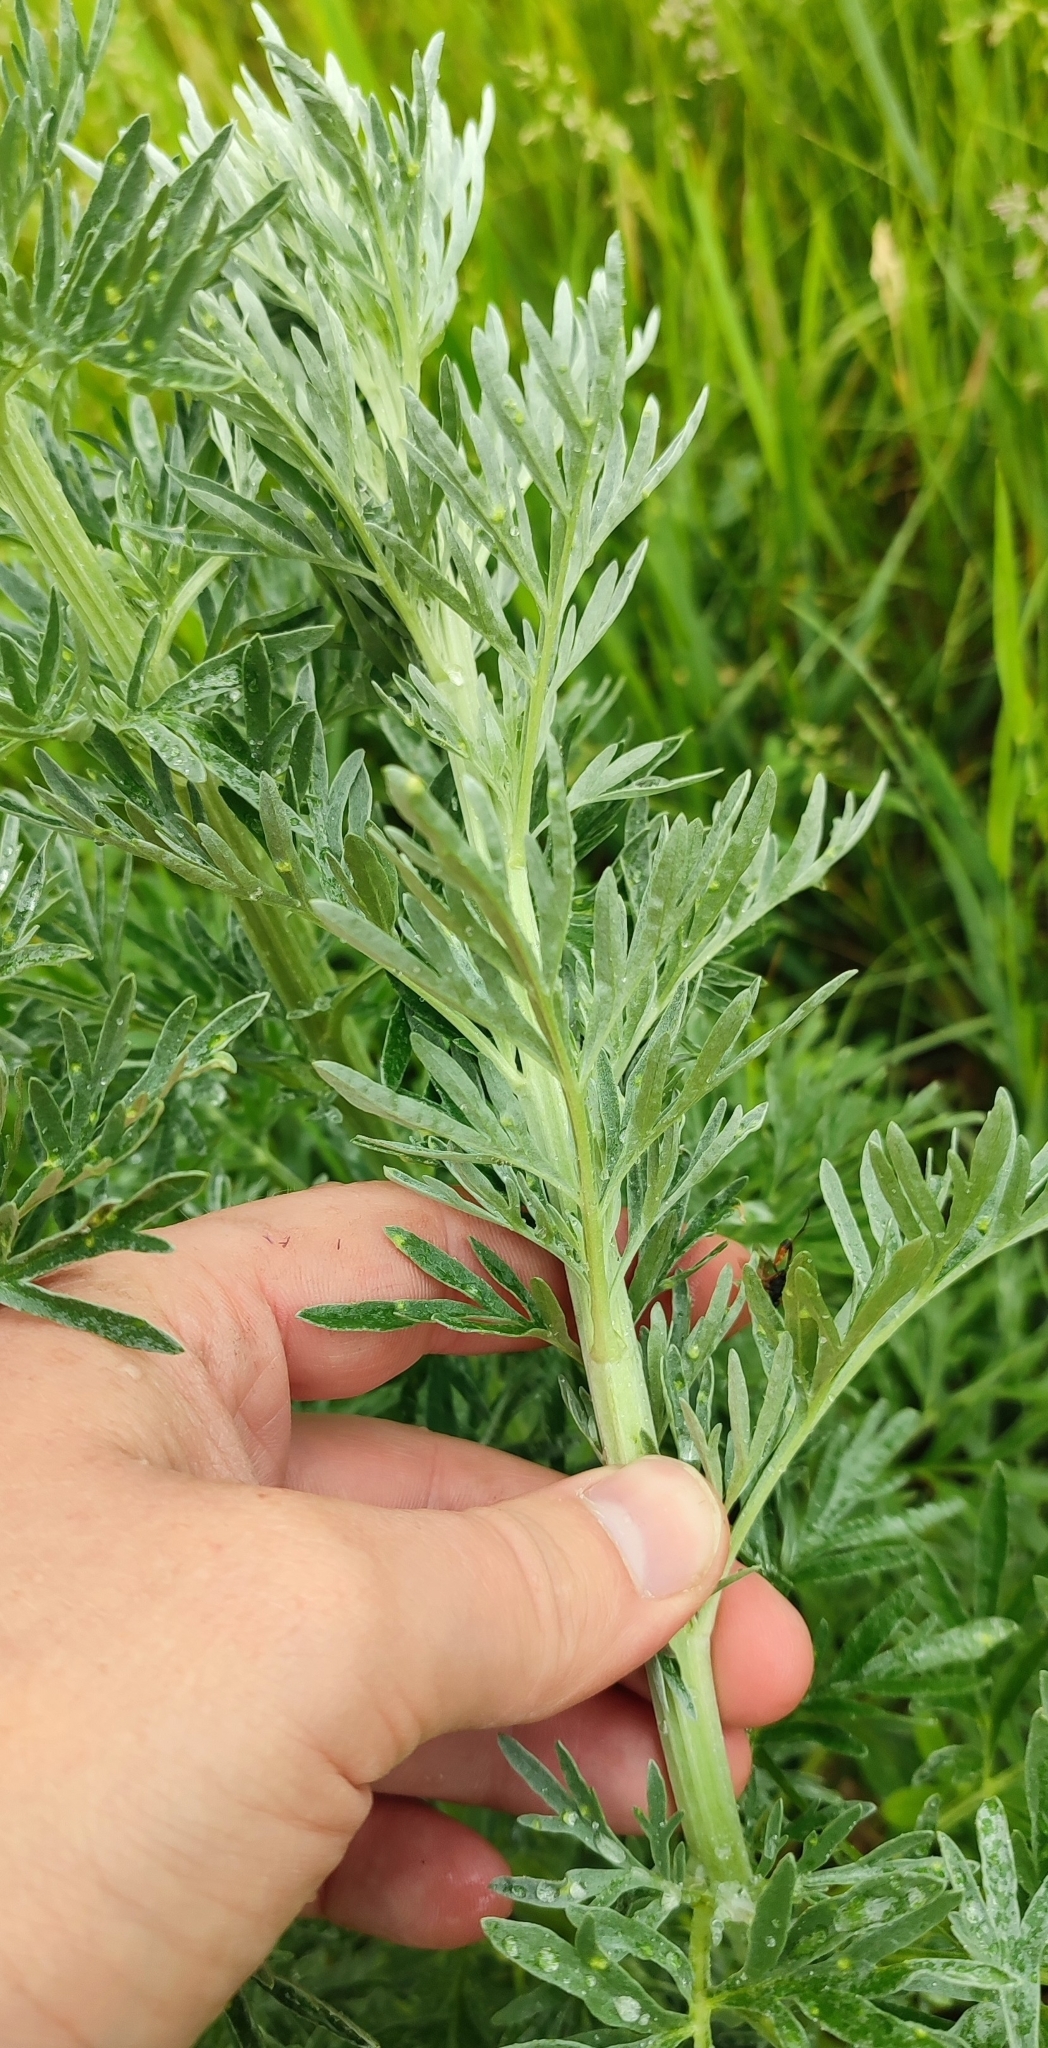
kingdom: Plantae
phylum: Tracheophyta
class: Magnoliopsida
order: Asterales
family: Asteraceae
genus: Artemisia
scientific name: Artemisia absinthium
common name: Wormwood
